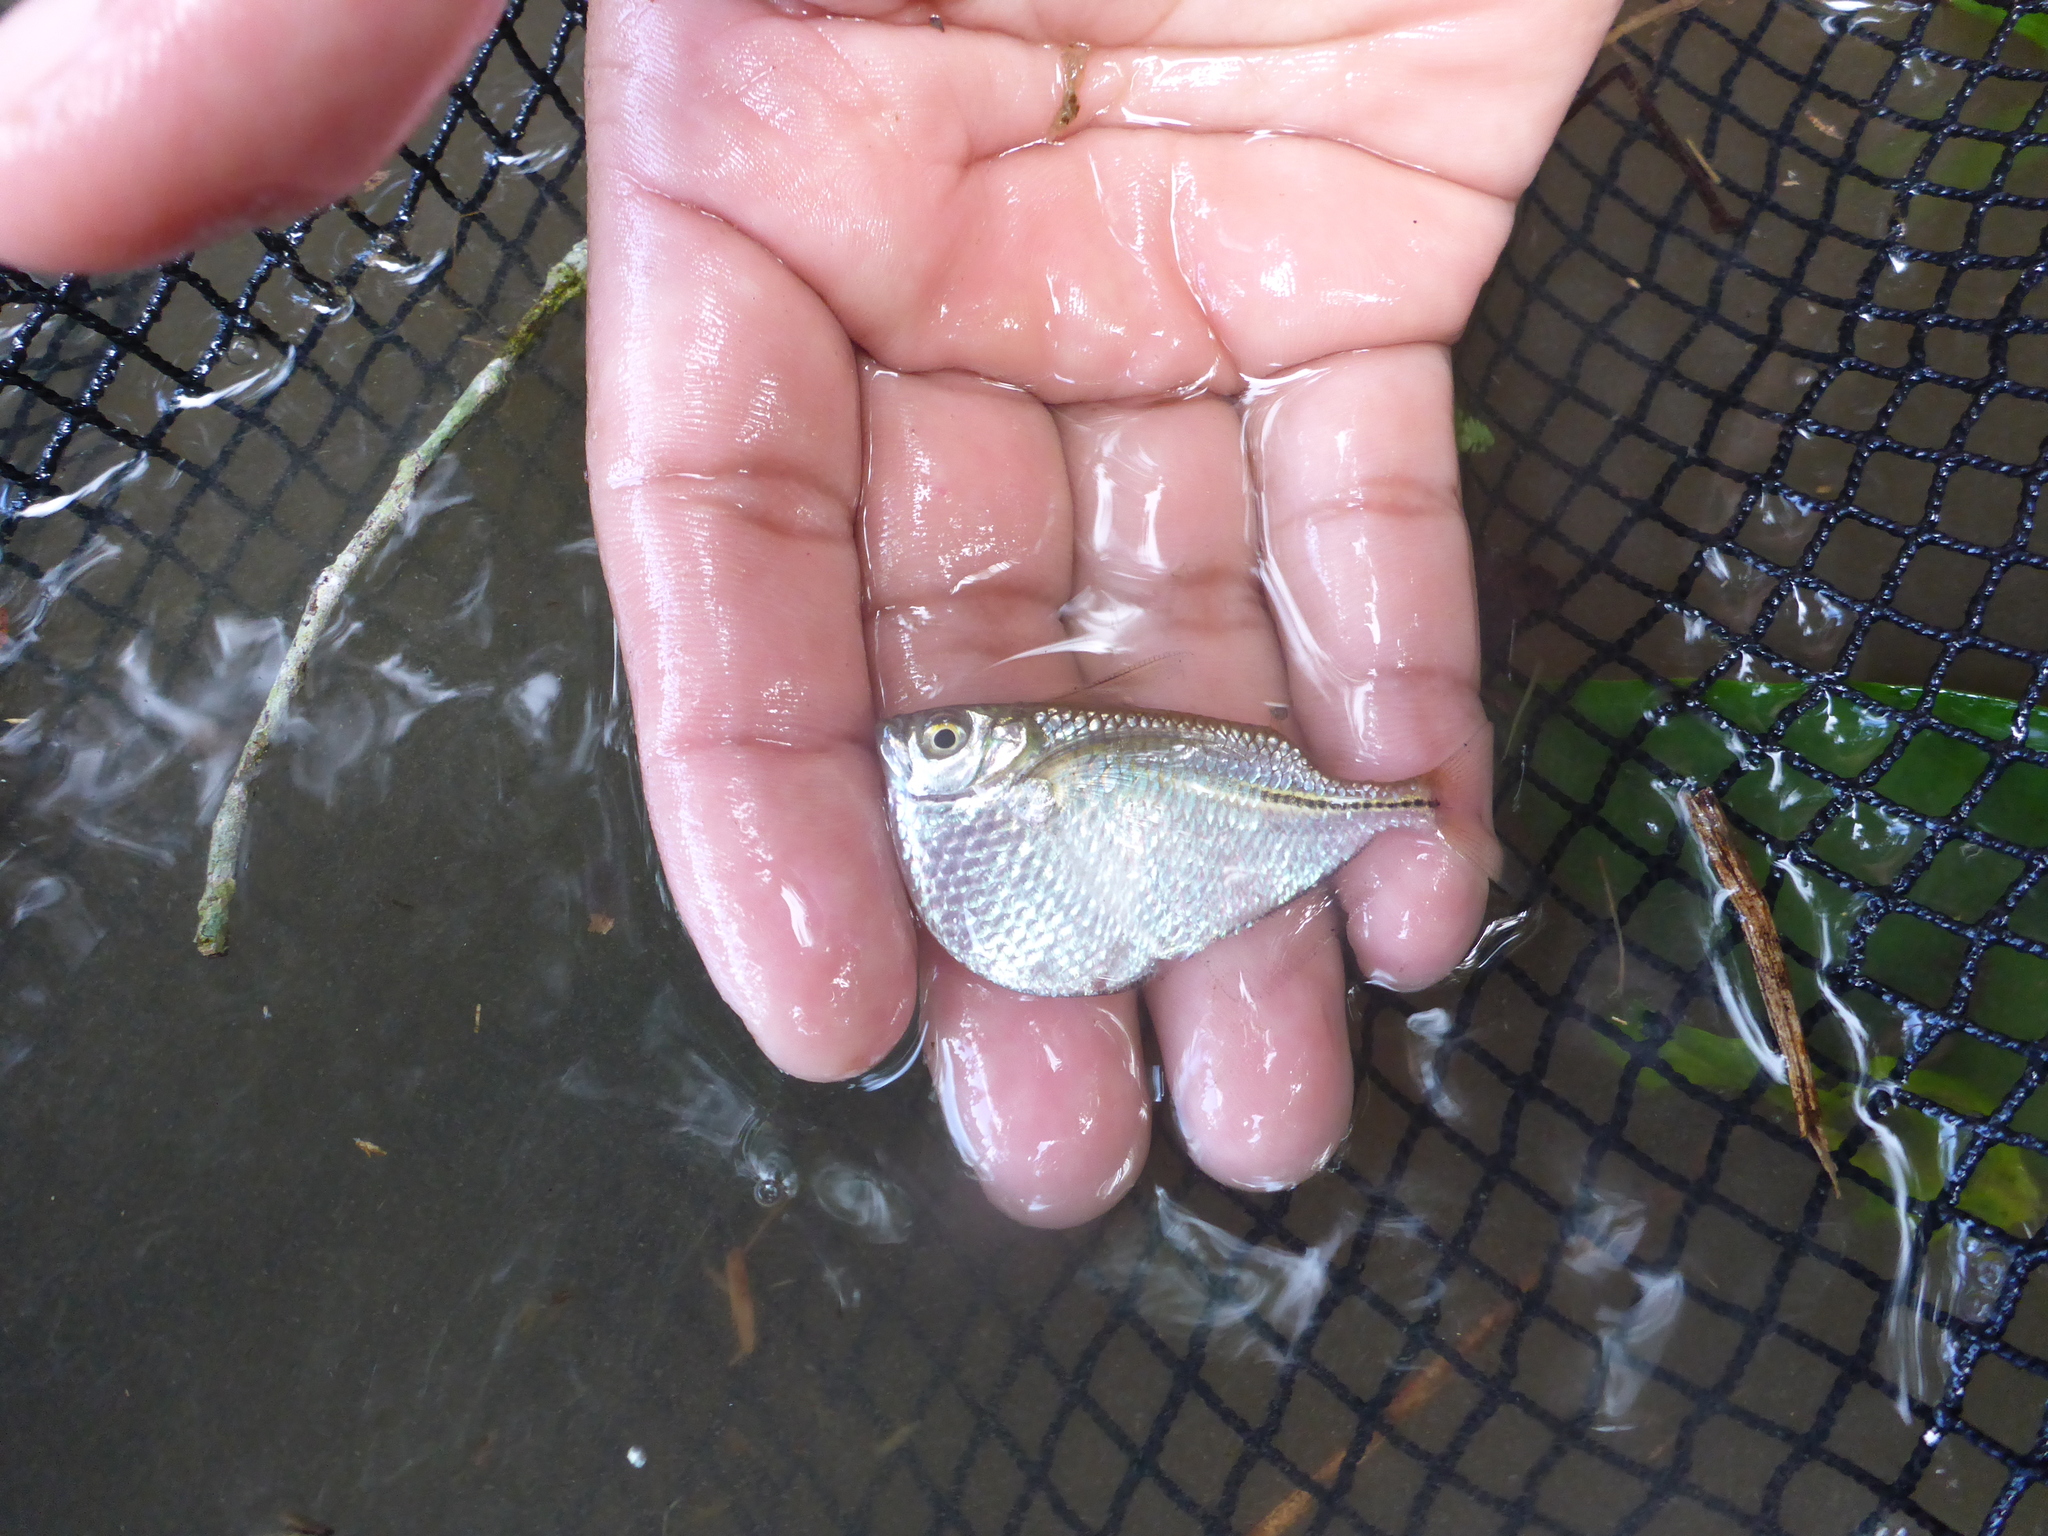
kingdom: Animalia
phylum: Chordata
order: Characiformes
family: Gasteropelecidae
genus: Gasteropelecus
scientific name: Gasteropelecus sternicla
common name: Common hatchetfish
